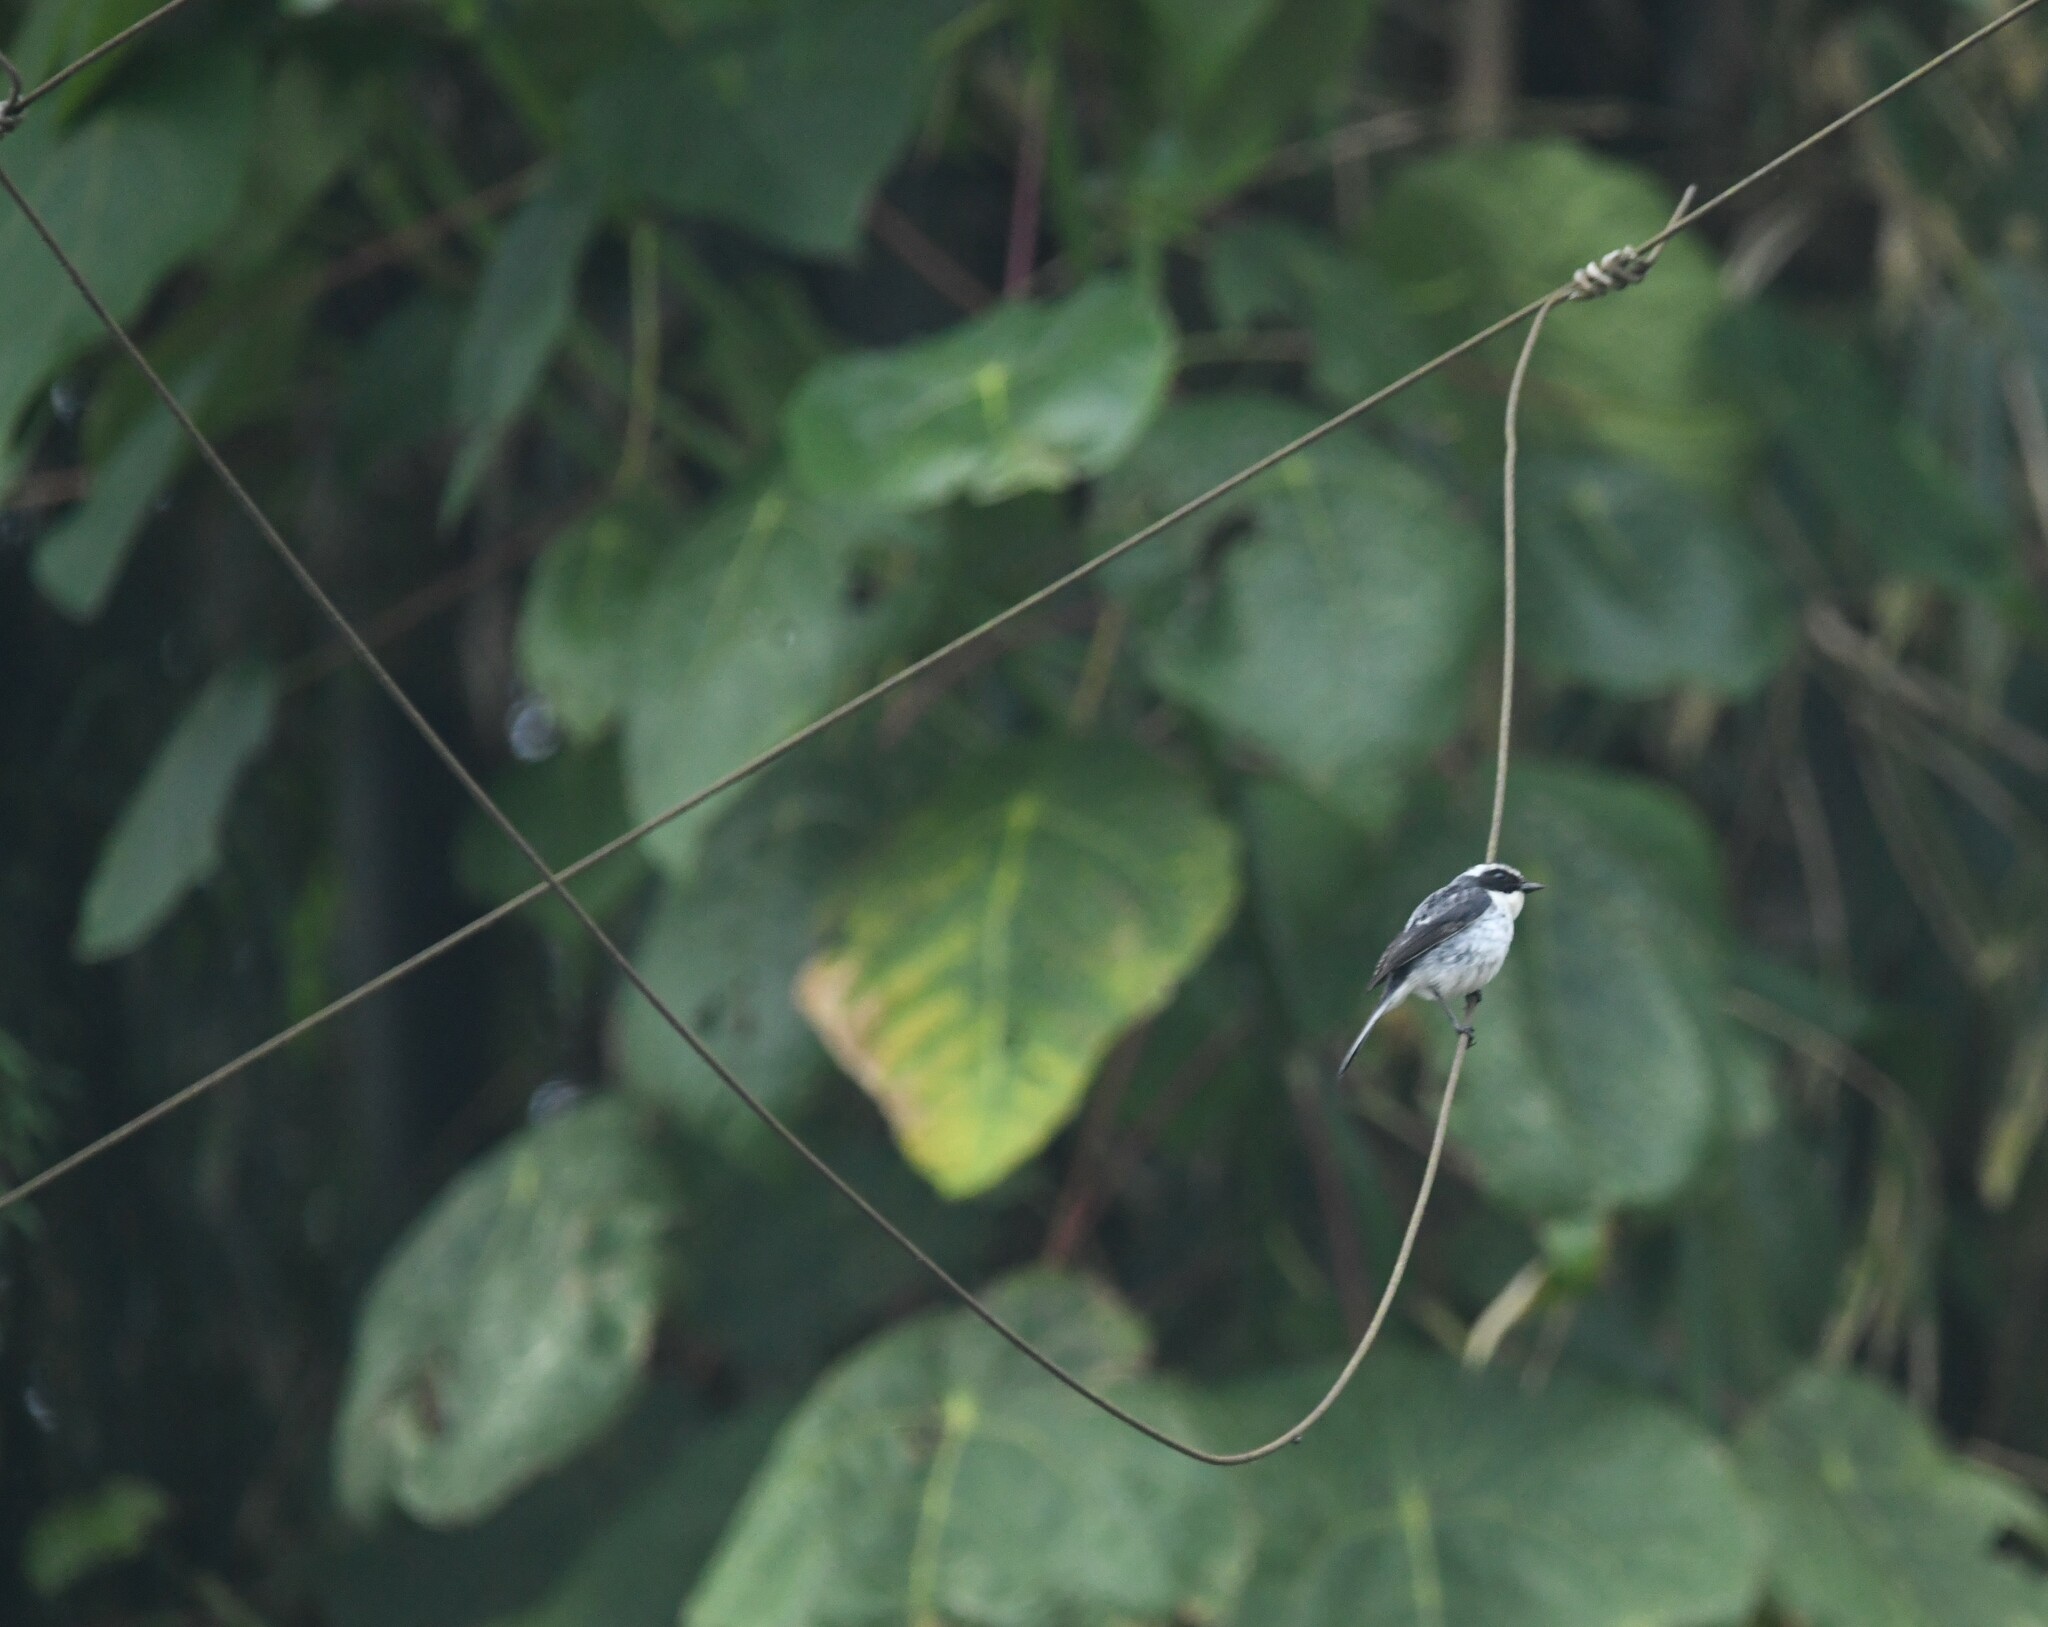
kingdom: Animalia
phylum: Chordata
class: Aves
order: Passeriformes
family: Muscicapidae
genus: Saxicola
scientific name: Saxicola ferreus
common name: Grey bush chat
